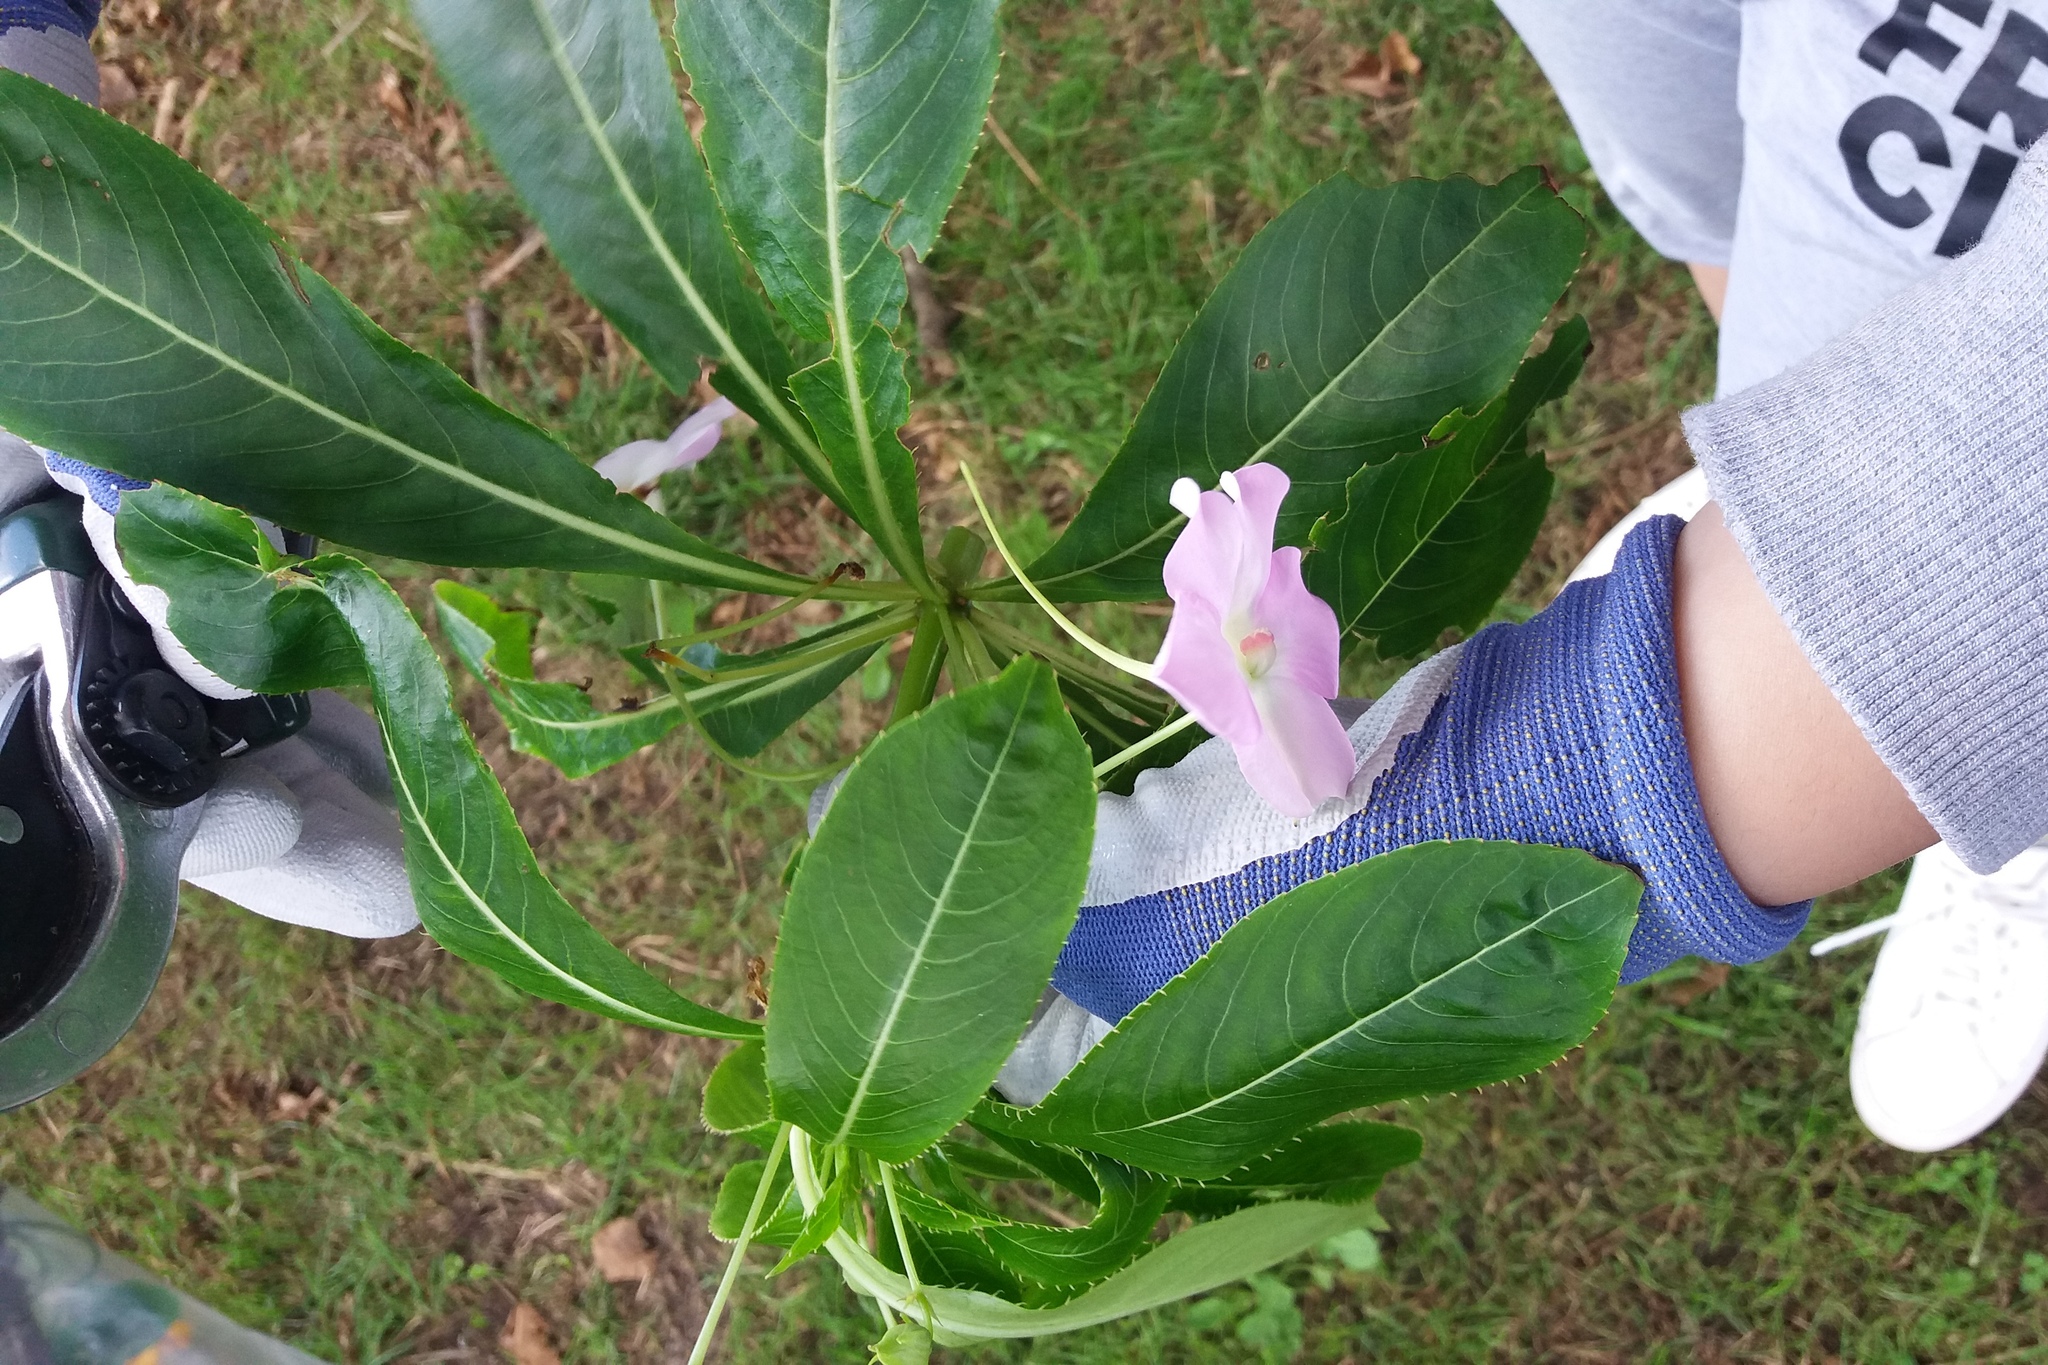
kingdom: Plantae
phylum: Tracheophyta
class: Magnoliopsida
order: Ericales
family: Balsaminaceae
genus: Impatiens
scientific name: Impatiens sodenii
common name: Oliver's touch-me-not
